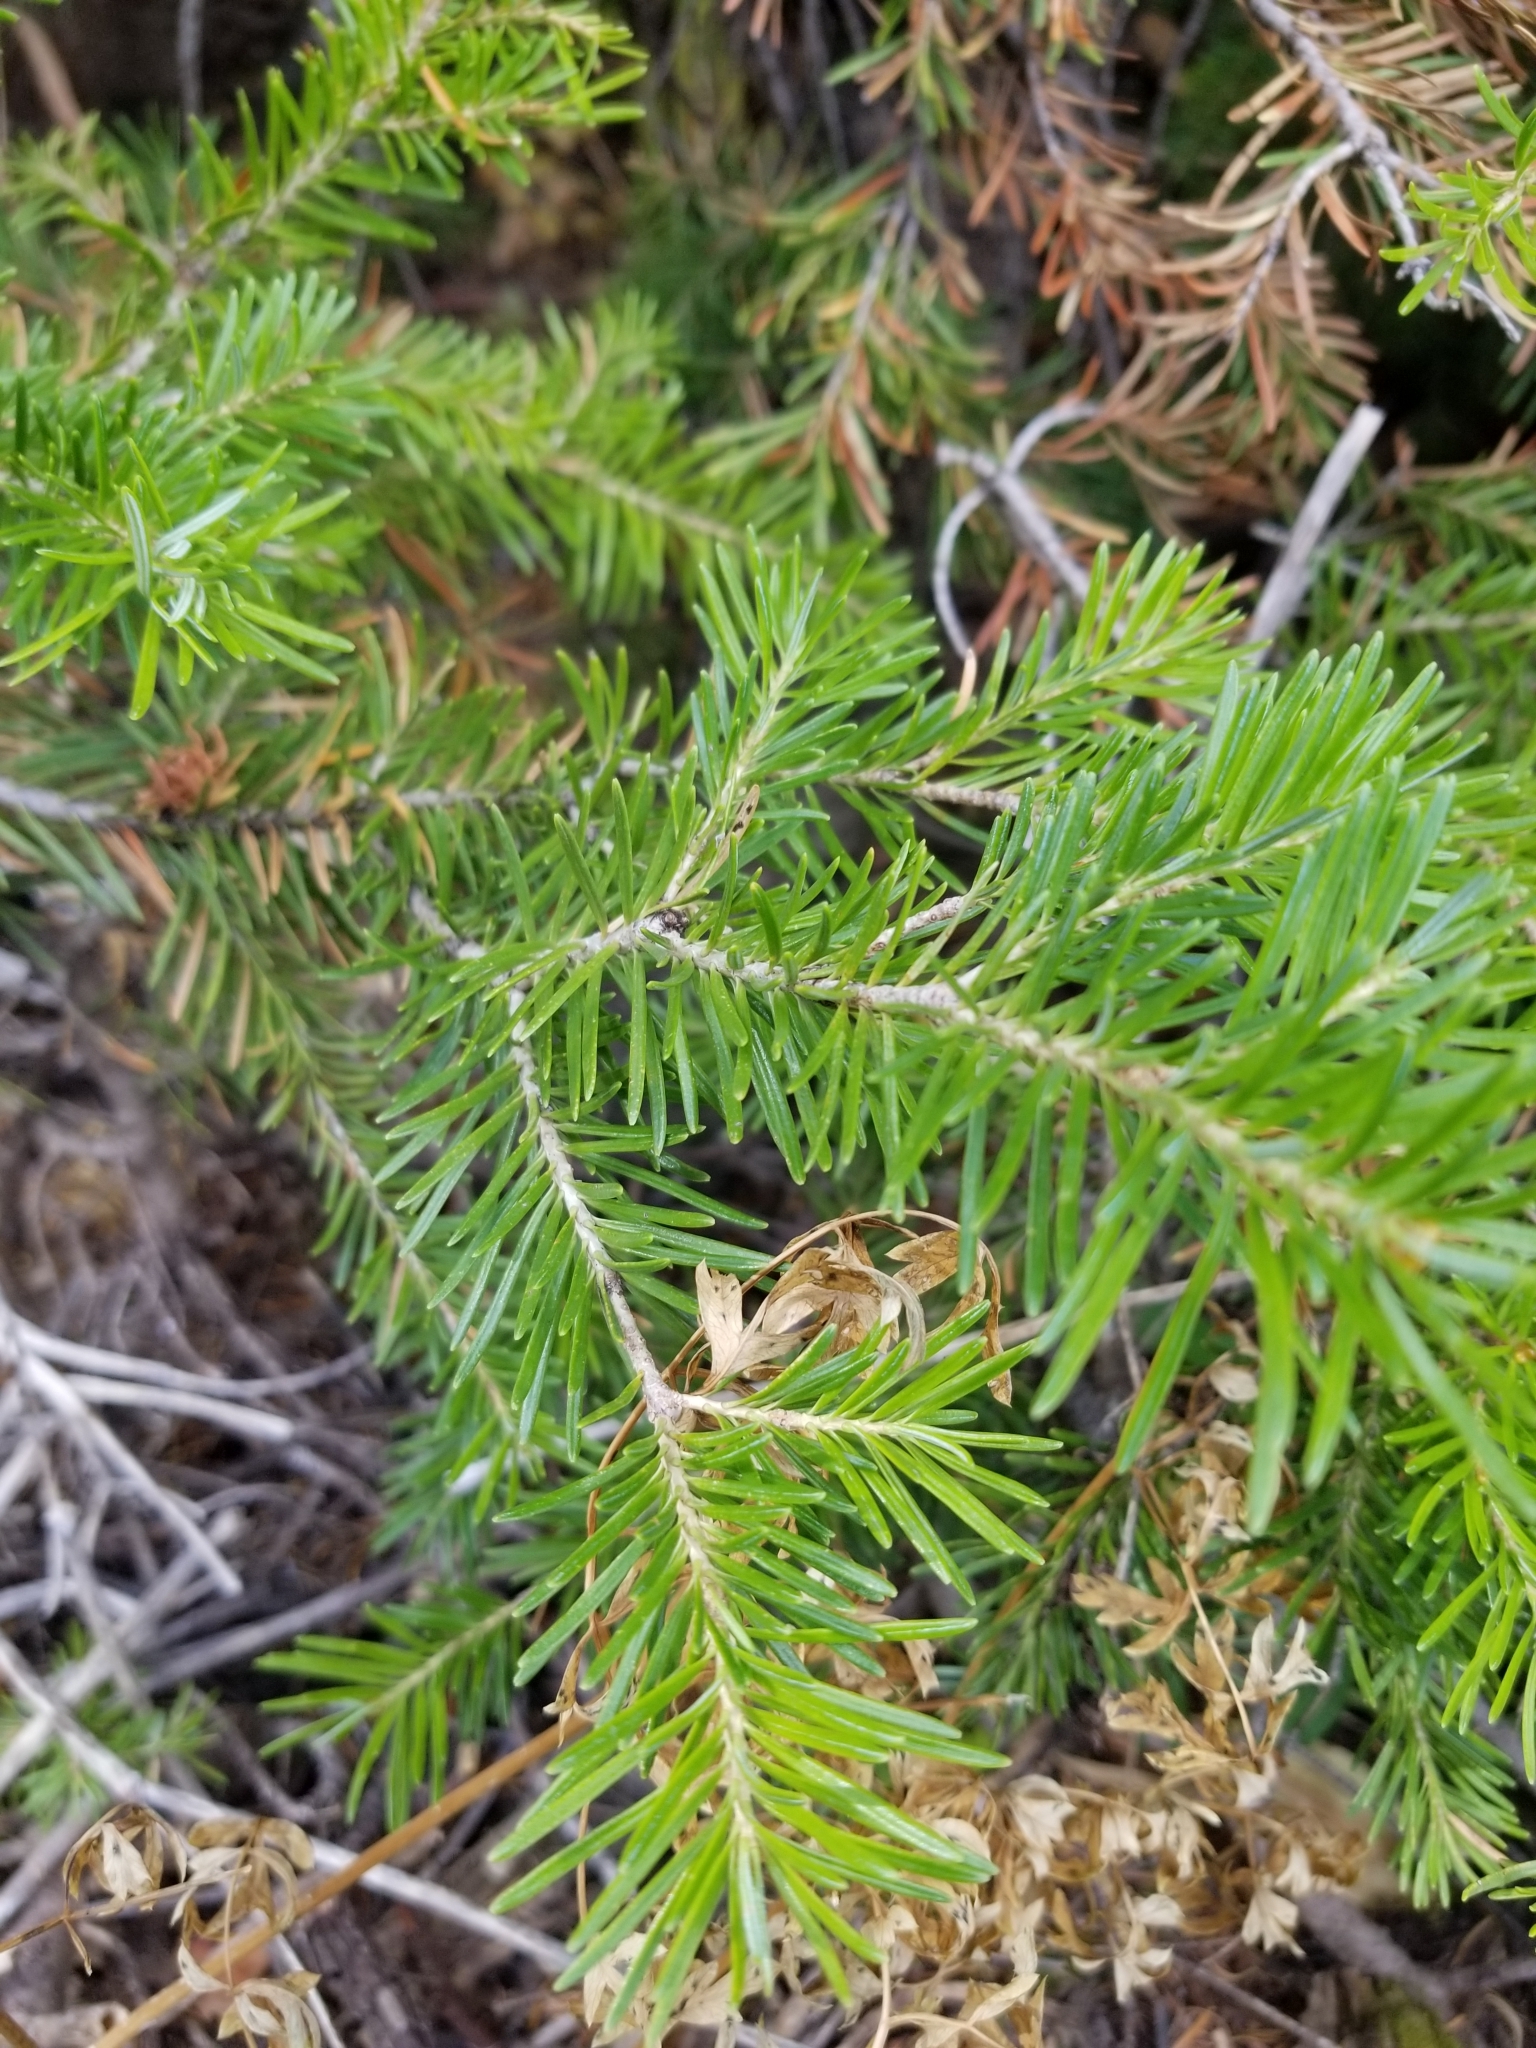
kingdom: Plantae
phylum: Tracheophyta
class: Pinopsida
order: Pinales
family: Pinaceae
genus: Pseudotsuga
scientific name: Pseudotsuga menziesii
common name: Douglas fir
